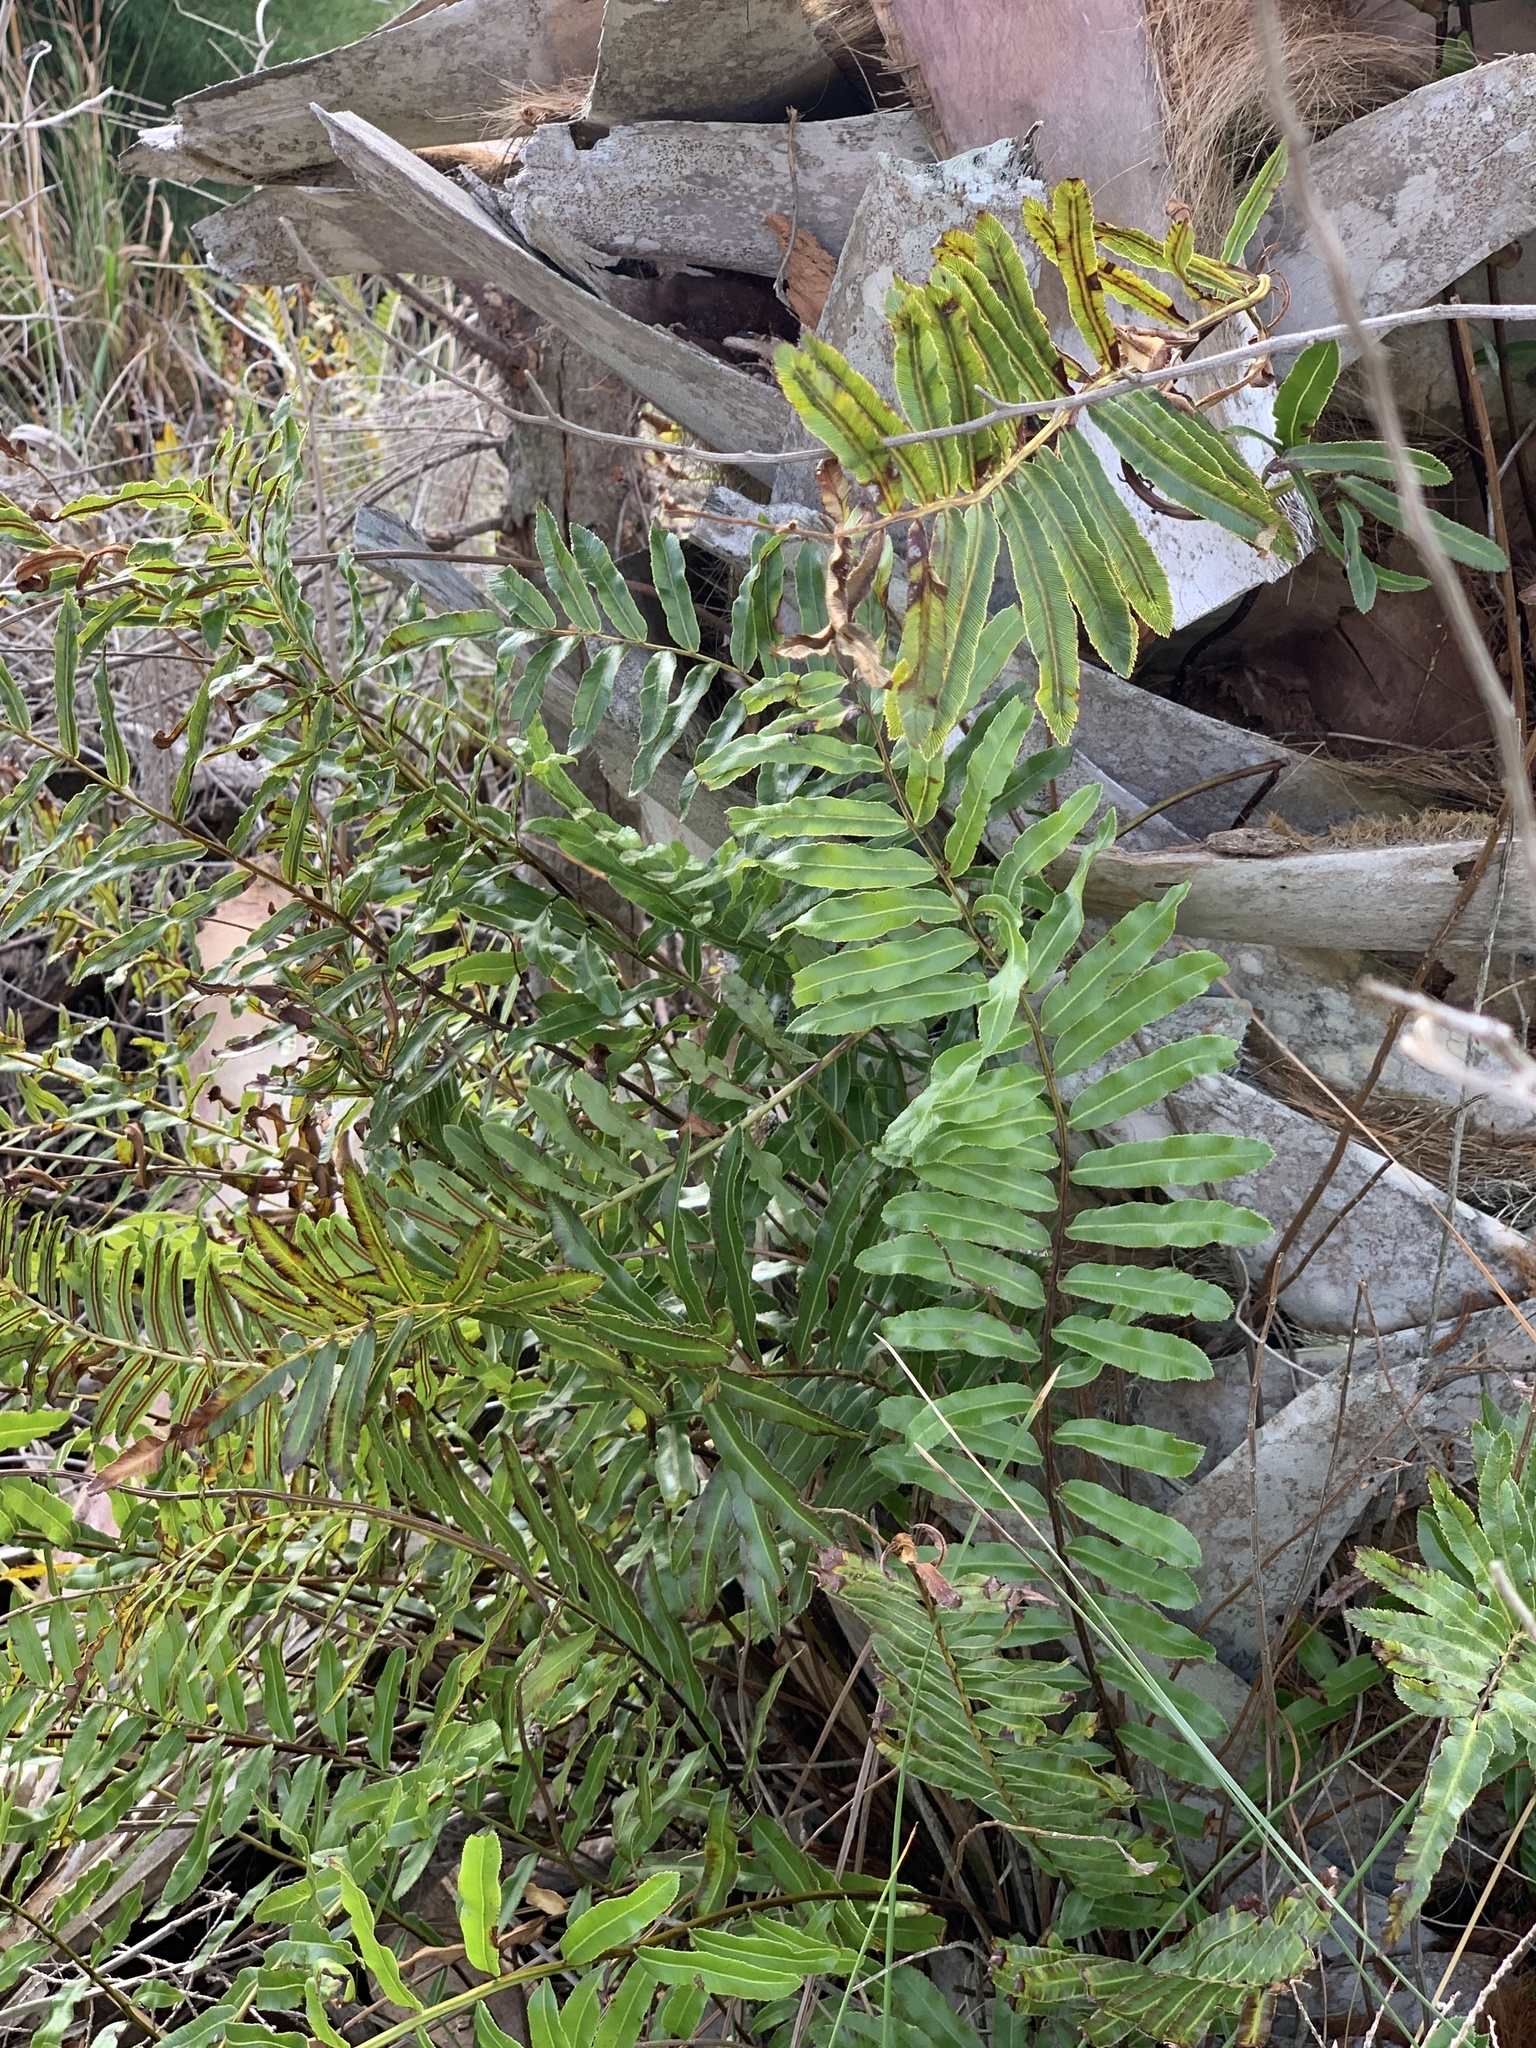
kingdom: Plantae
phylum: Tracheophyta
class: Polypodiopsida
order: Polypodiales
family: Blechnaceae
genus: Telmatoblechnum
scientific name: Telmatoblechnum serrulatum
